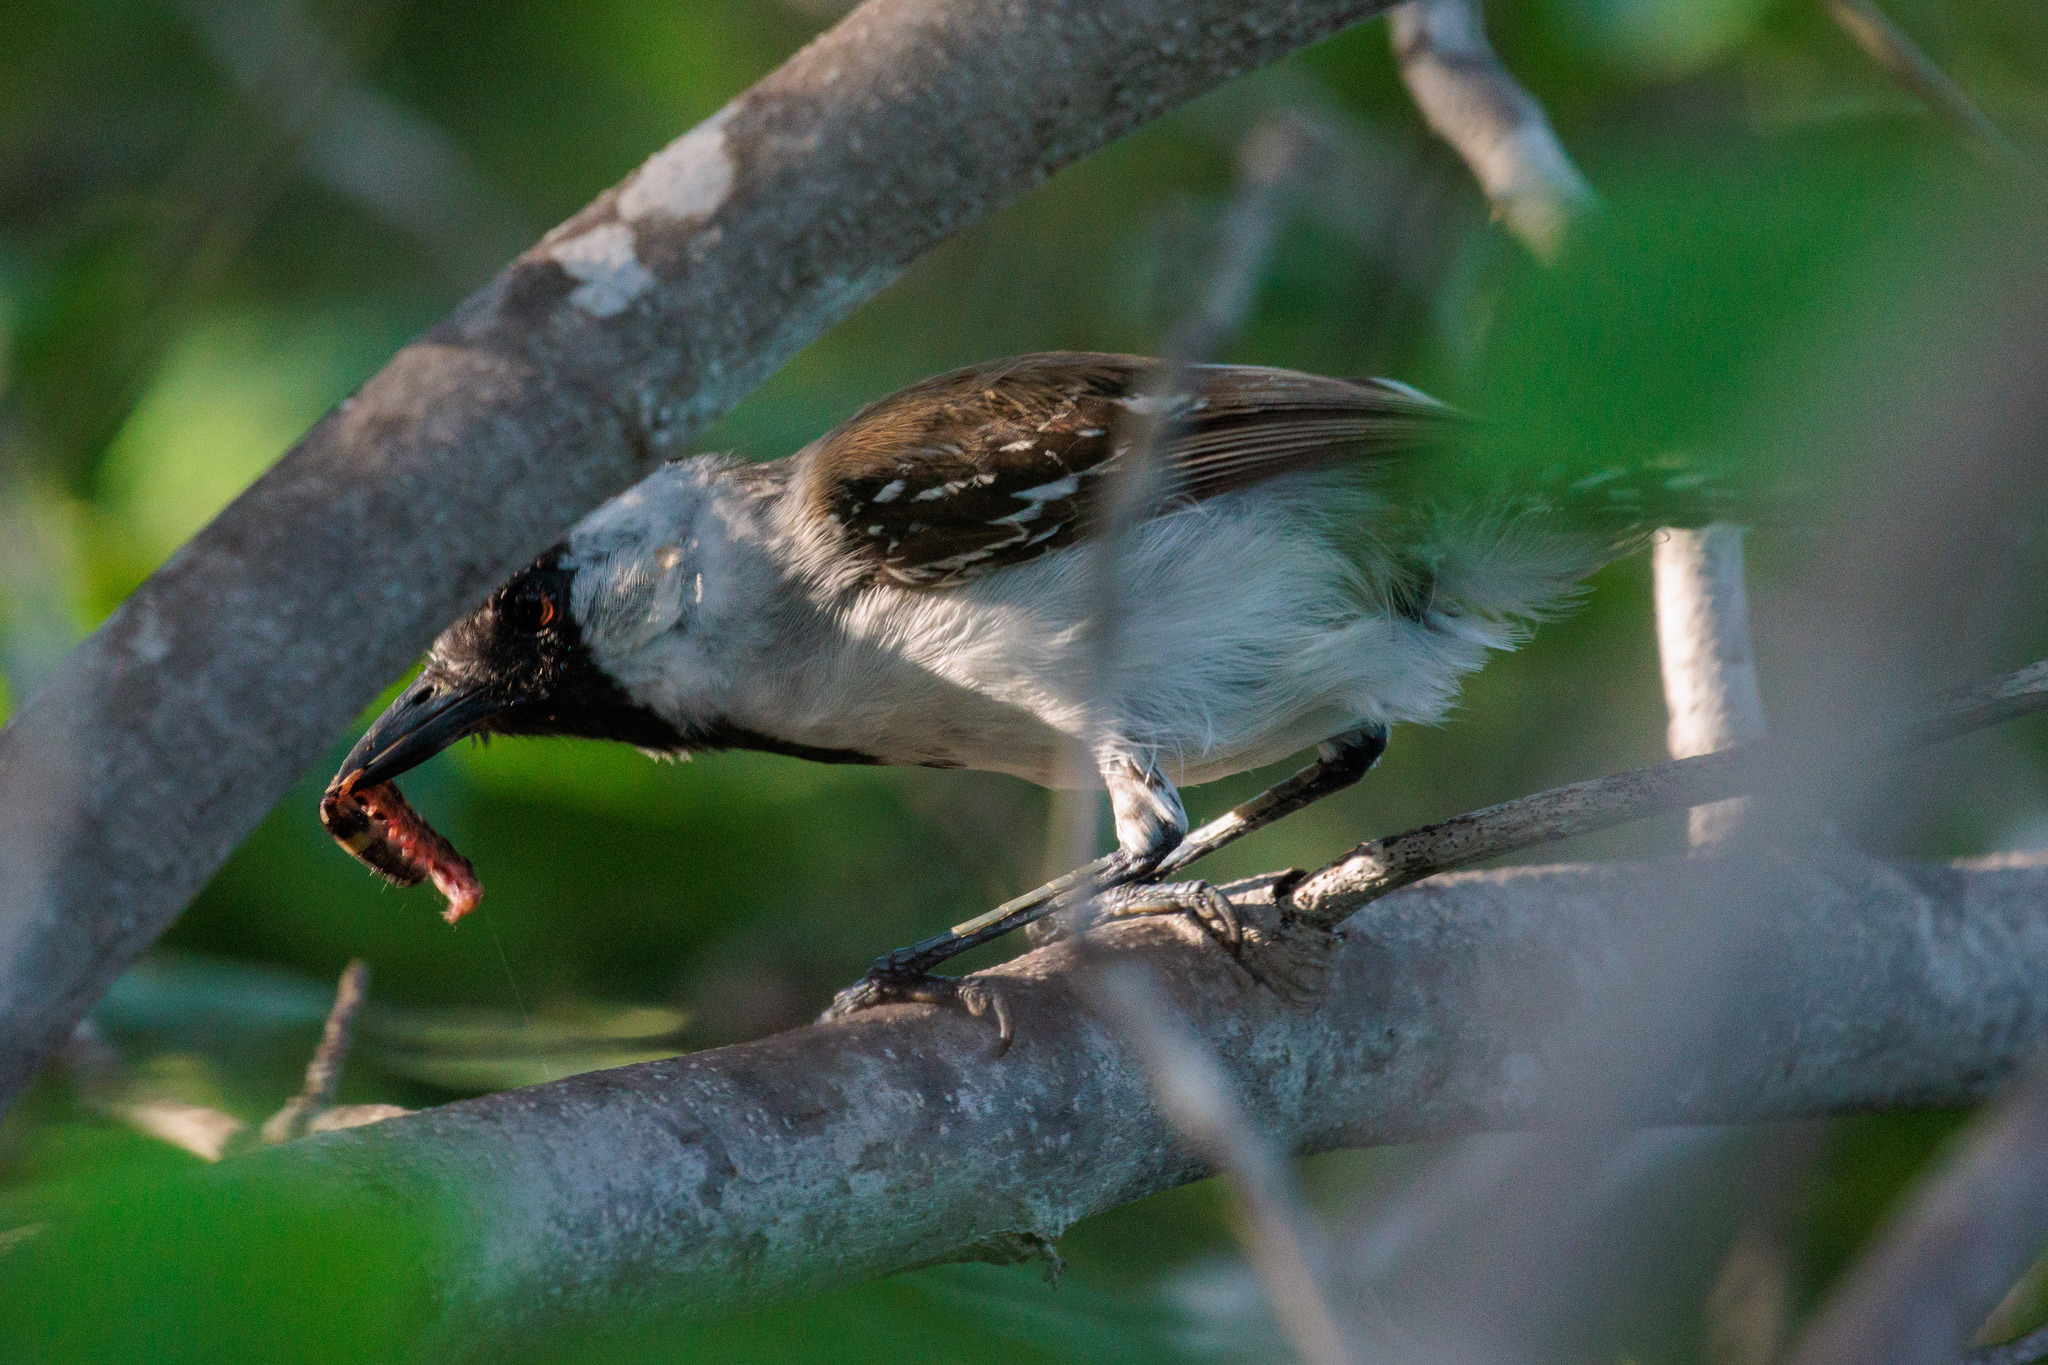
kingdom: Animalia
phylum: Chordata
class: Aves
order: Passeriformes
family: Thamnophilidae
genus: Sakesphorus
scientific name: Sakesphorus cristatus
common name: Silvery-cheeked antshrike
